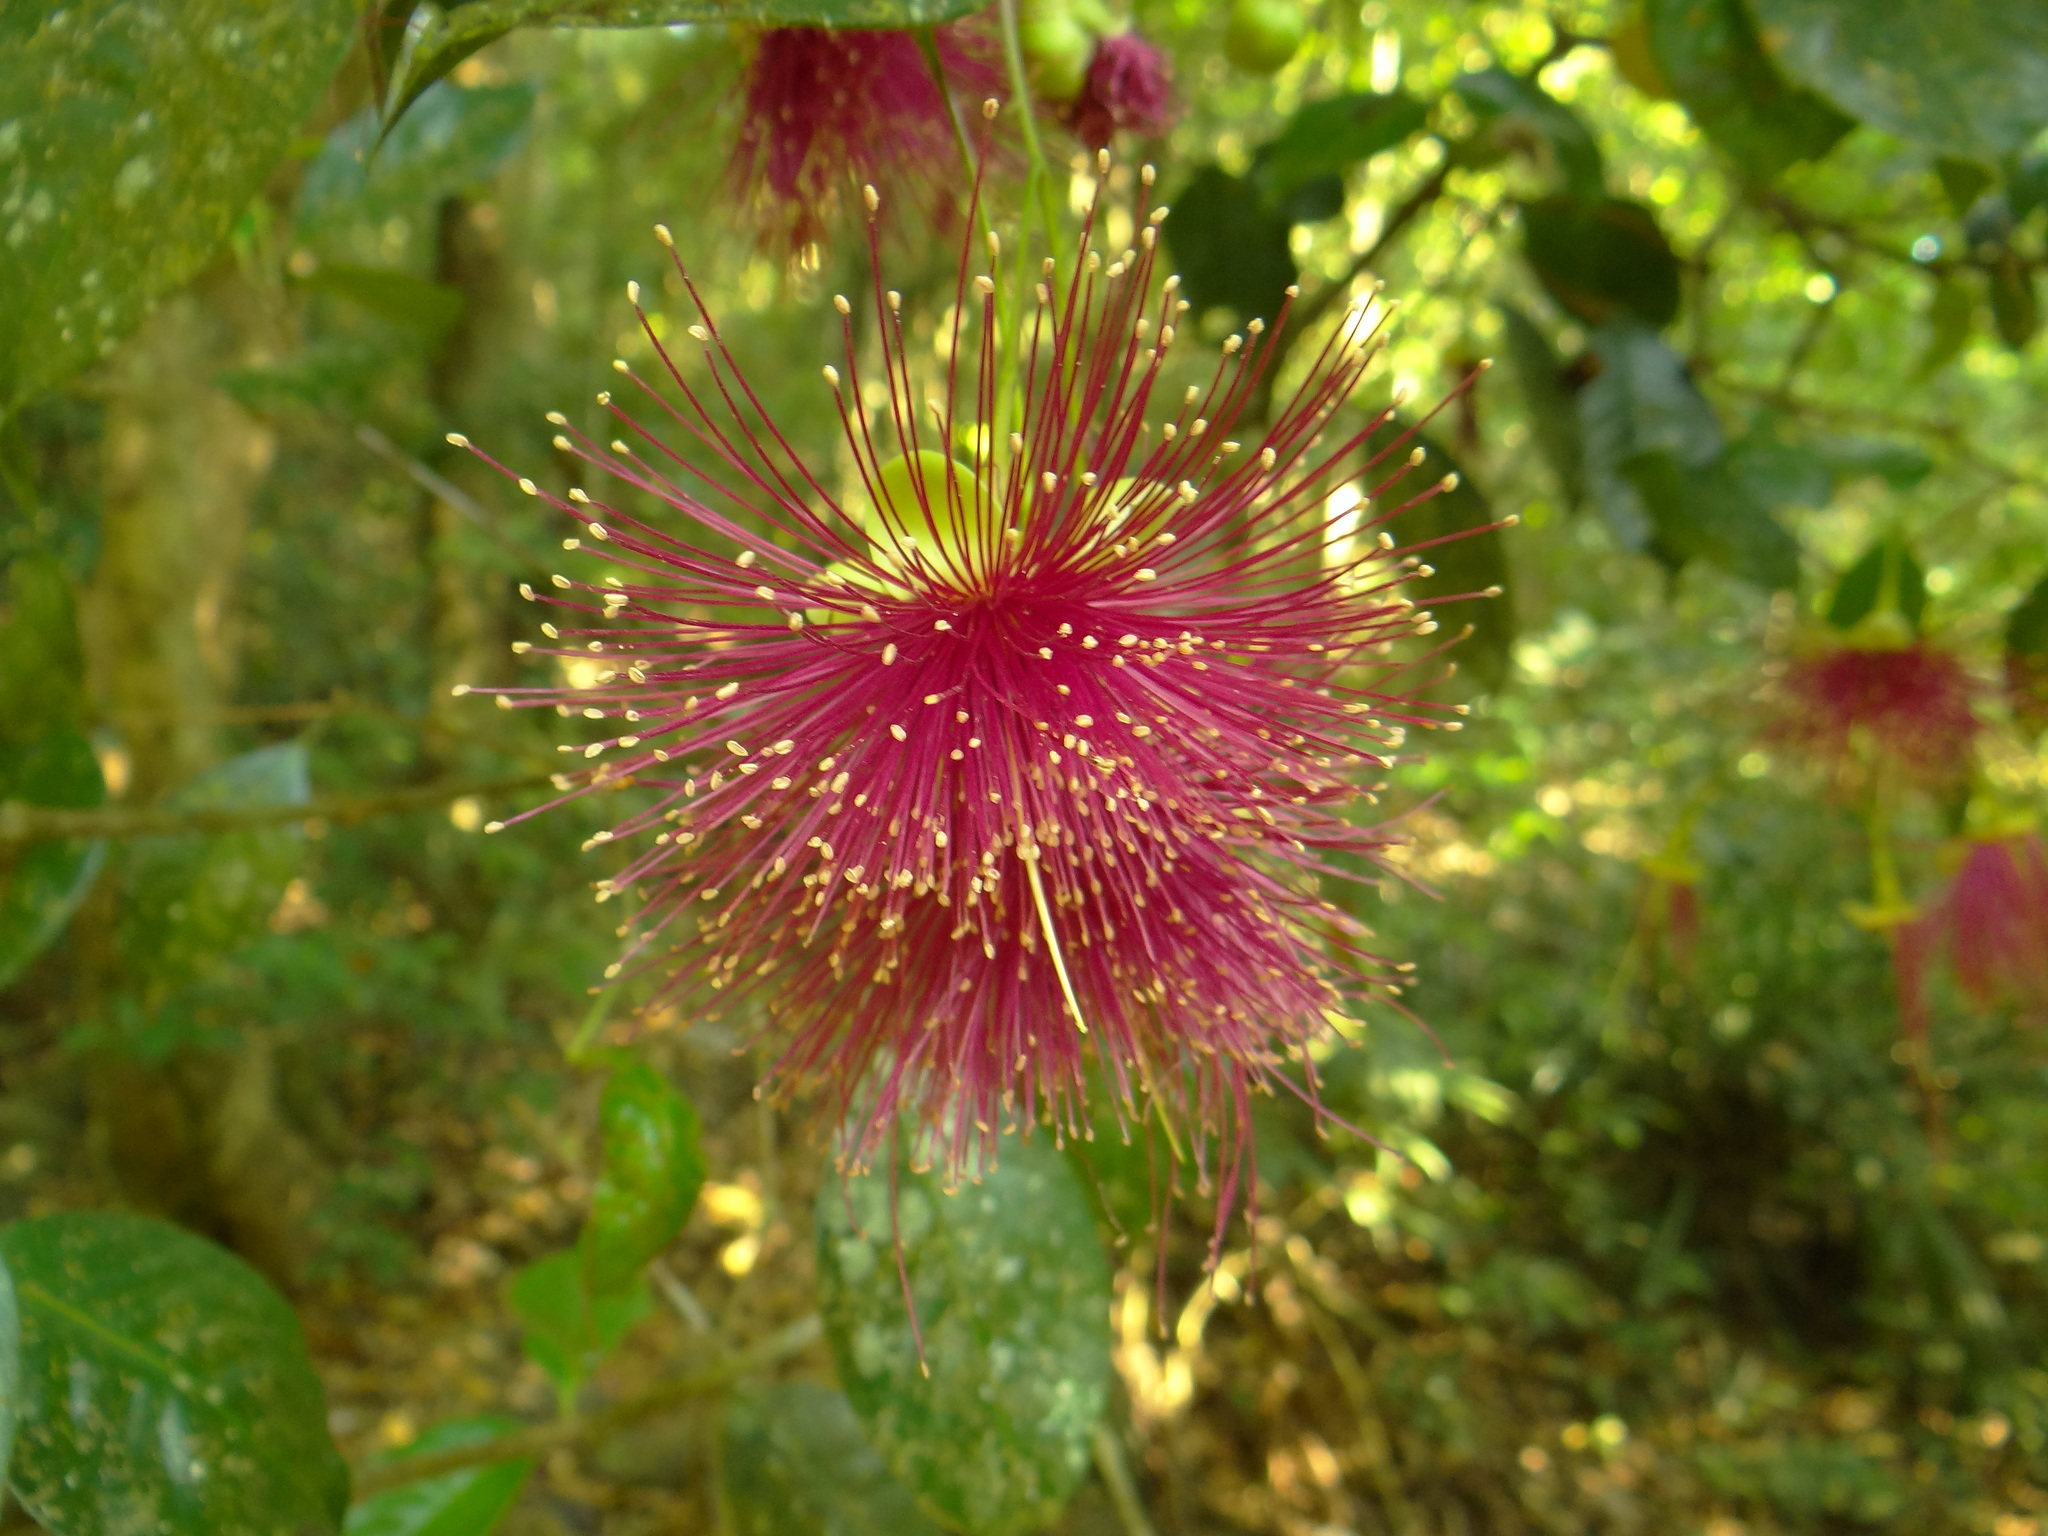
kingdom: Plantae
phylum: Tracheophyta
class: Magnoliopsida
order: Myrtales
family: Myrtaceae
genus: Syzygium
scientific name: Syzygium laetum
